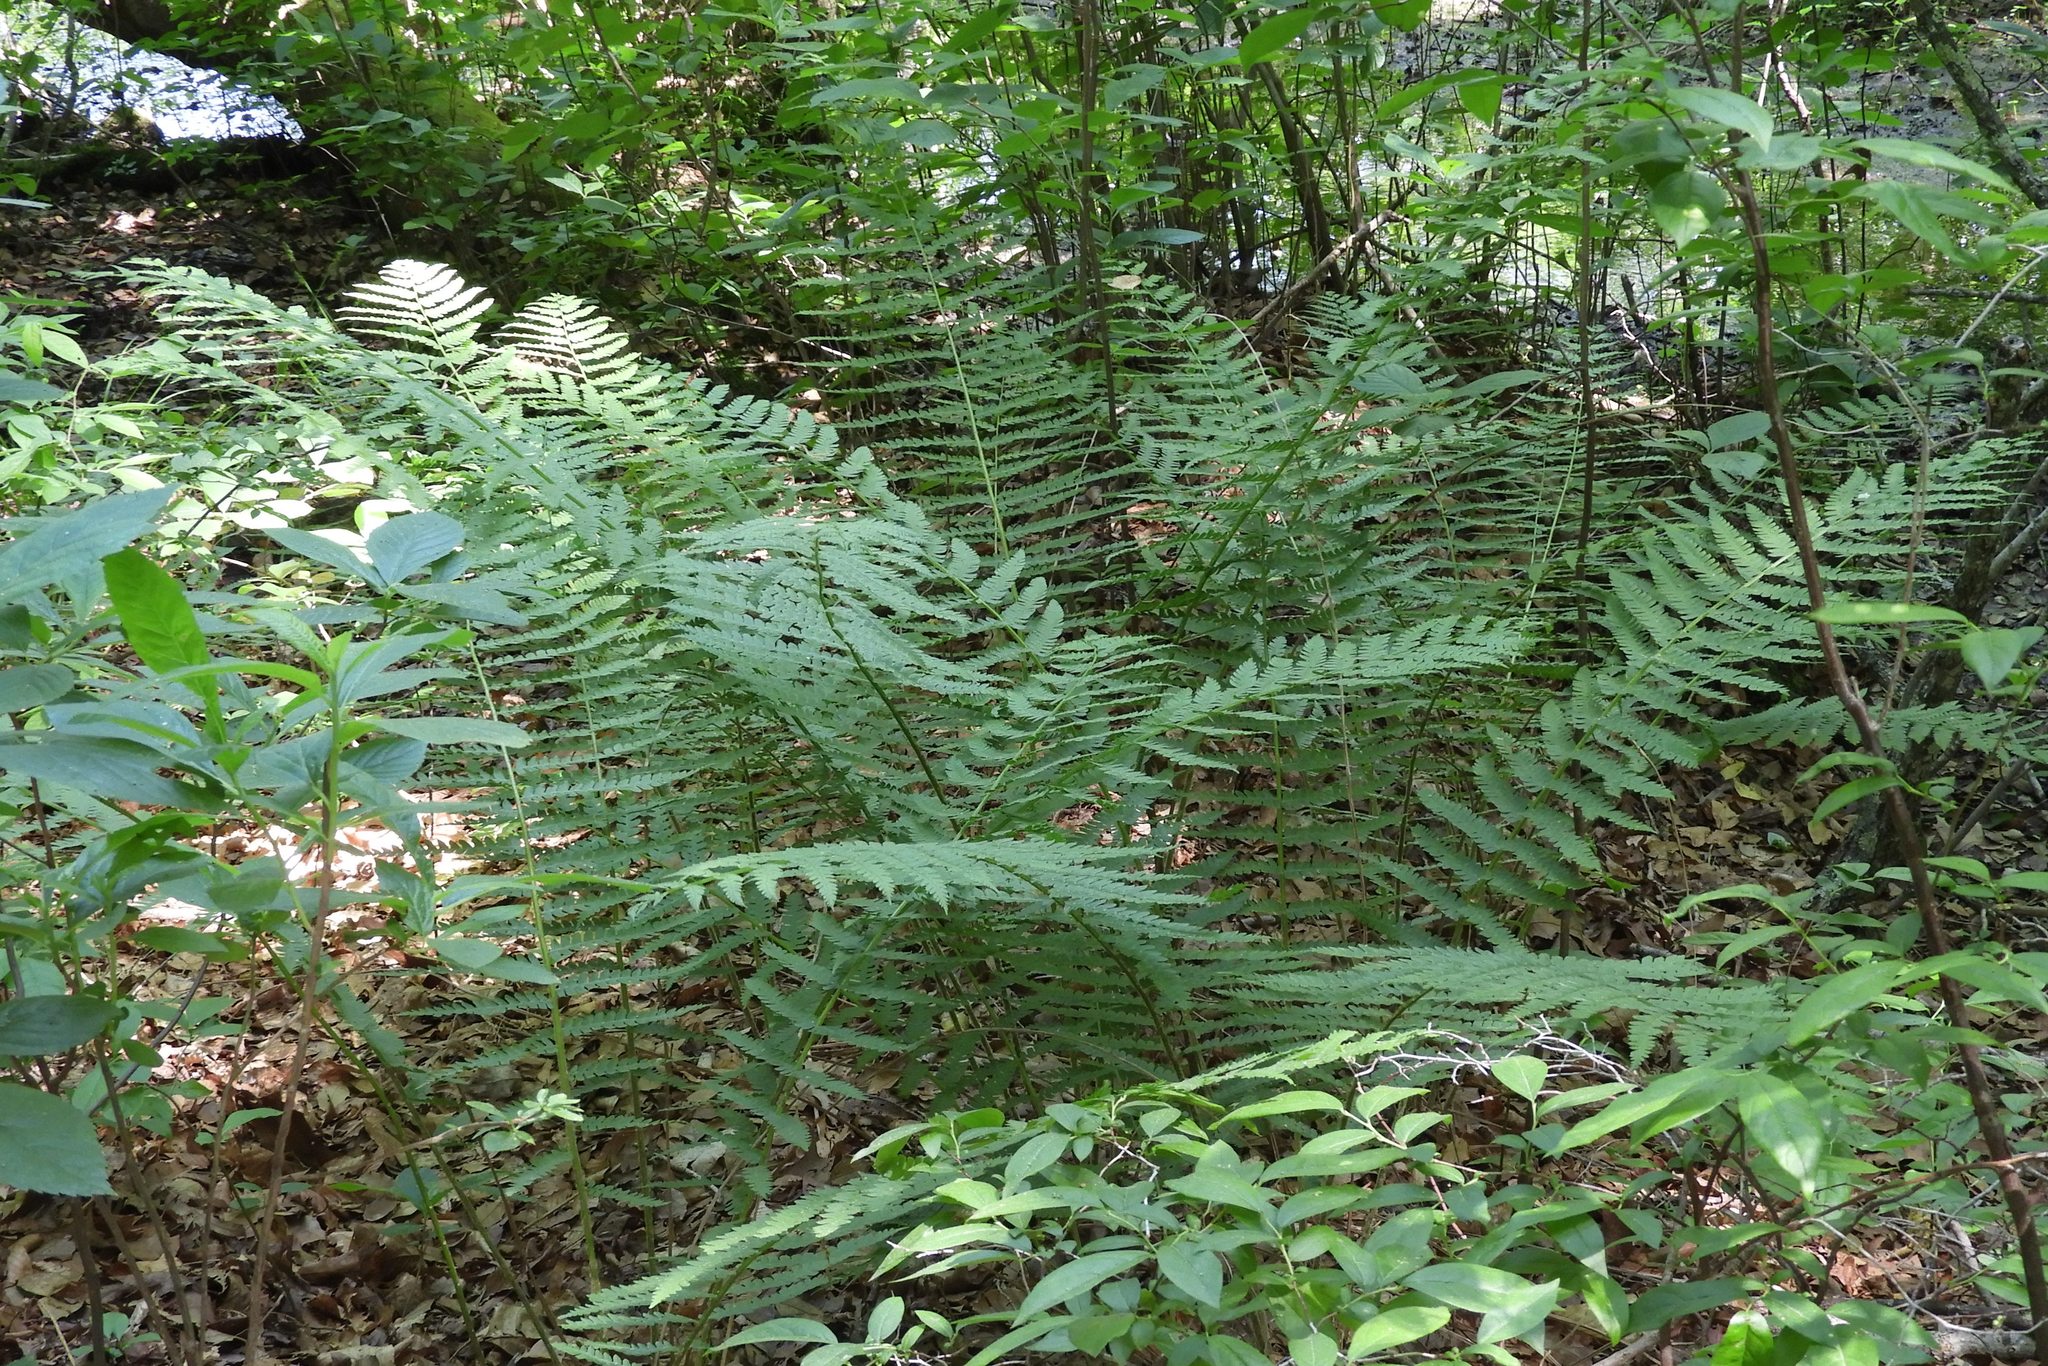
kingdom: Plantae
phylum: Tracheophyta
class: Polypodiopsida
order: Osmundales
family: Osmundaceae
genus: Osmundastrum
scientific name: Osmundastrum cinnamomeum
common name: Cinnamon fern
